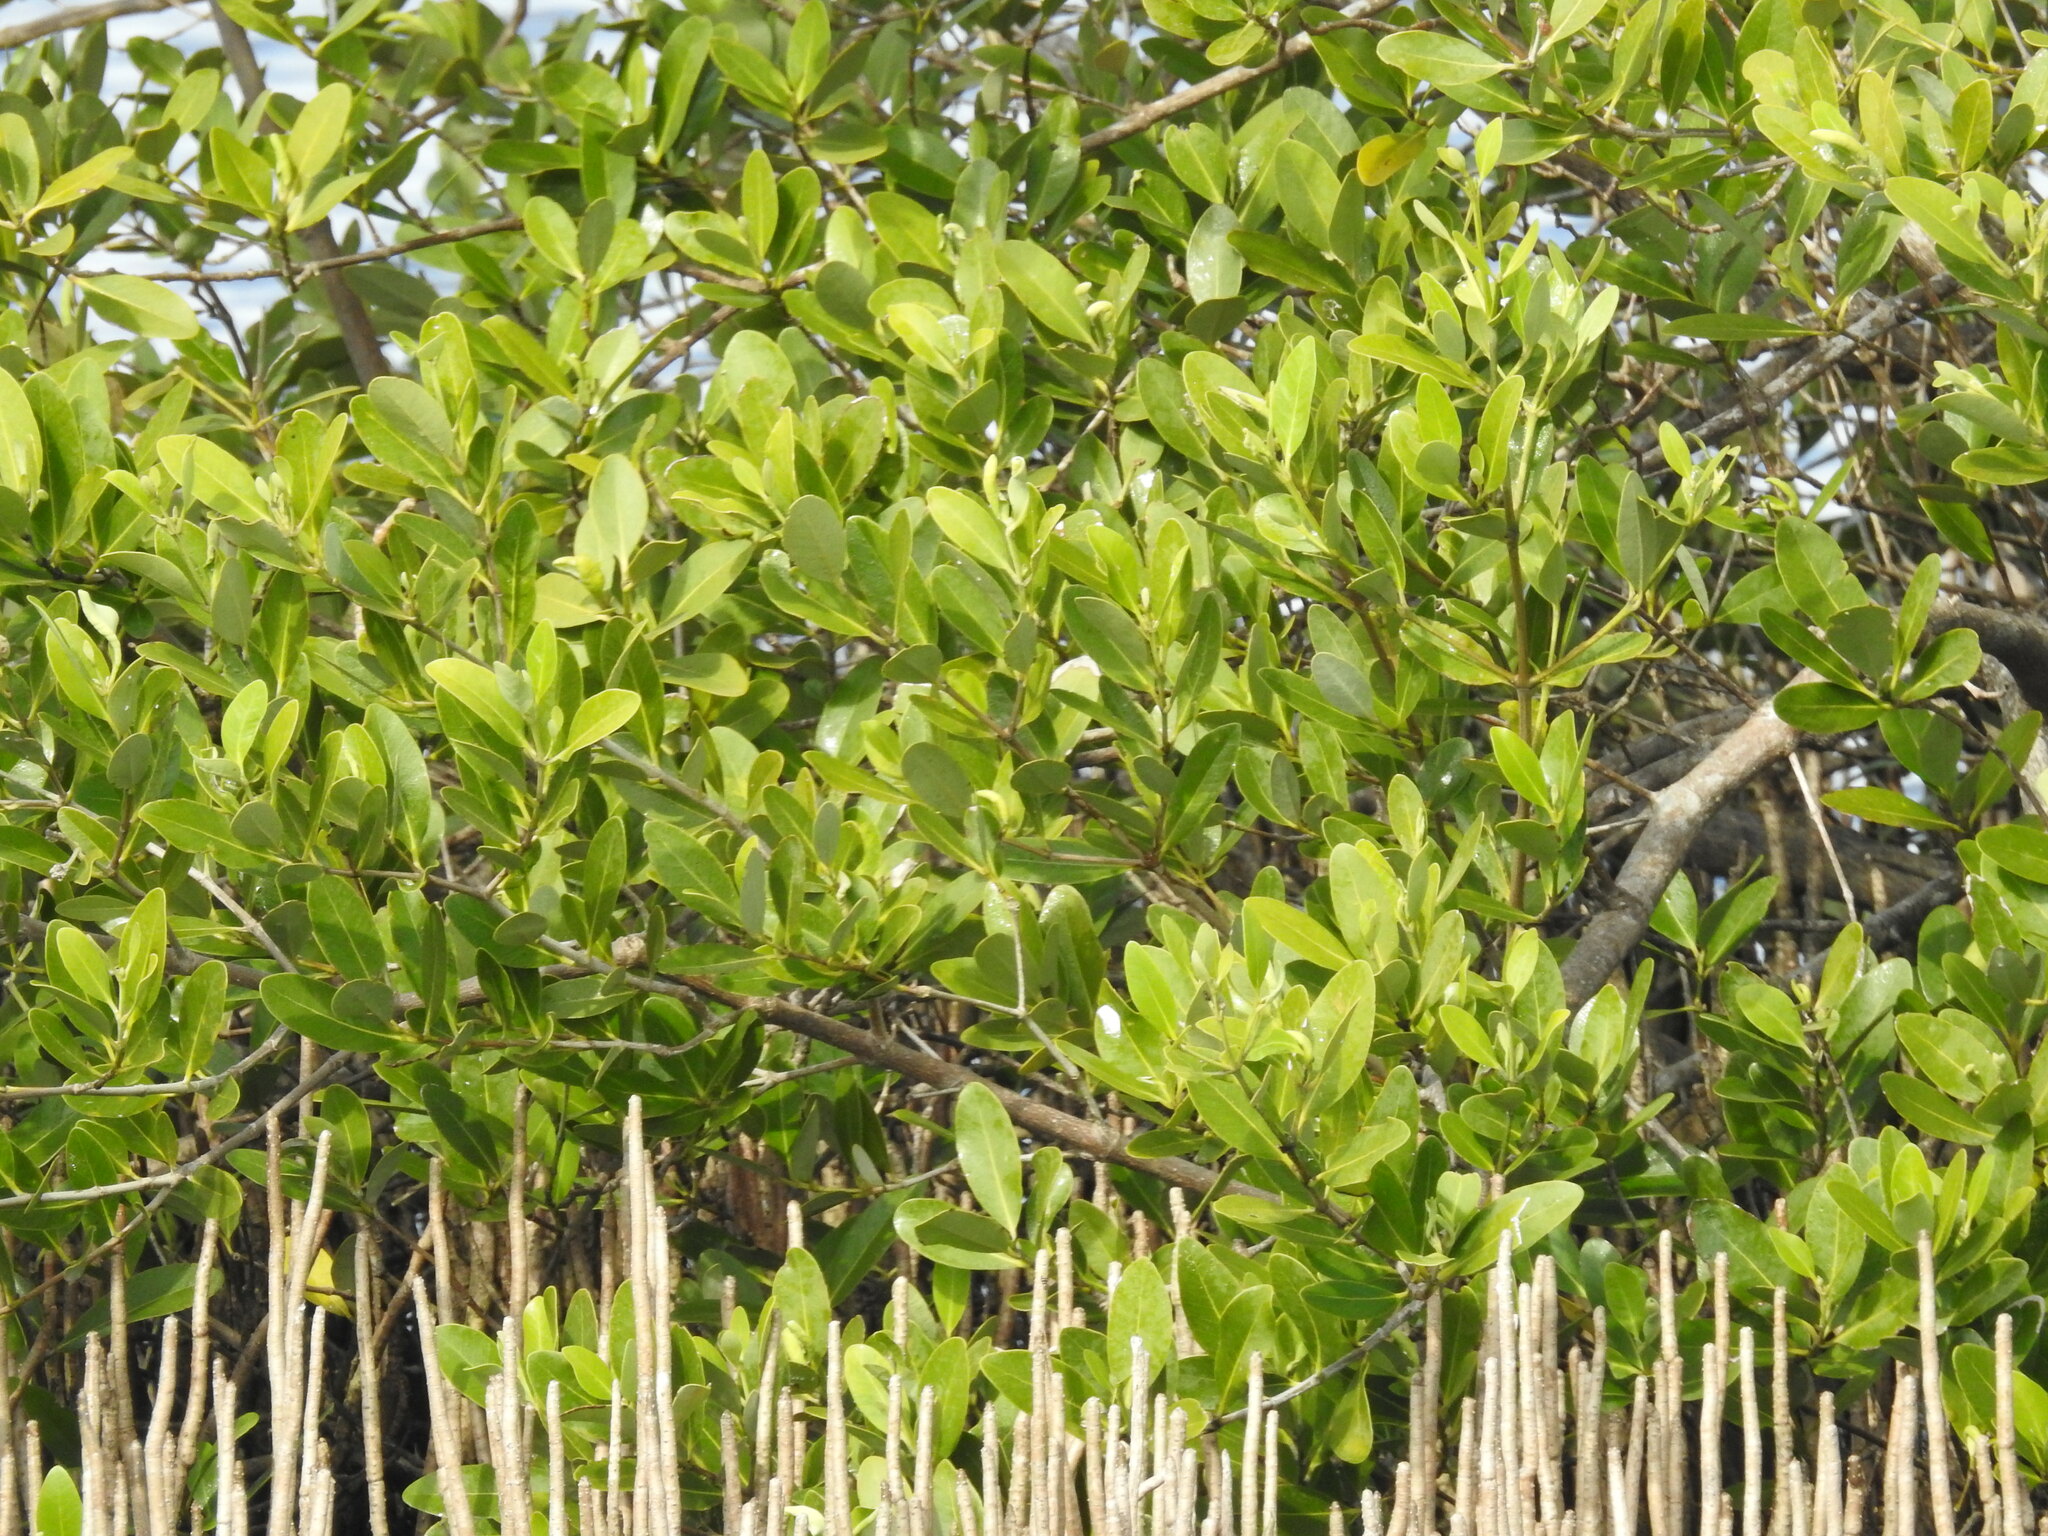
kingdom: Plantae
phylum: Tracheophyta
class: Magnoliopsida
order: Lamiales
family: Acanthaceae
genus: Avicennia
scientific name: Avicennia germinans
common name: Black mangrove
